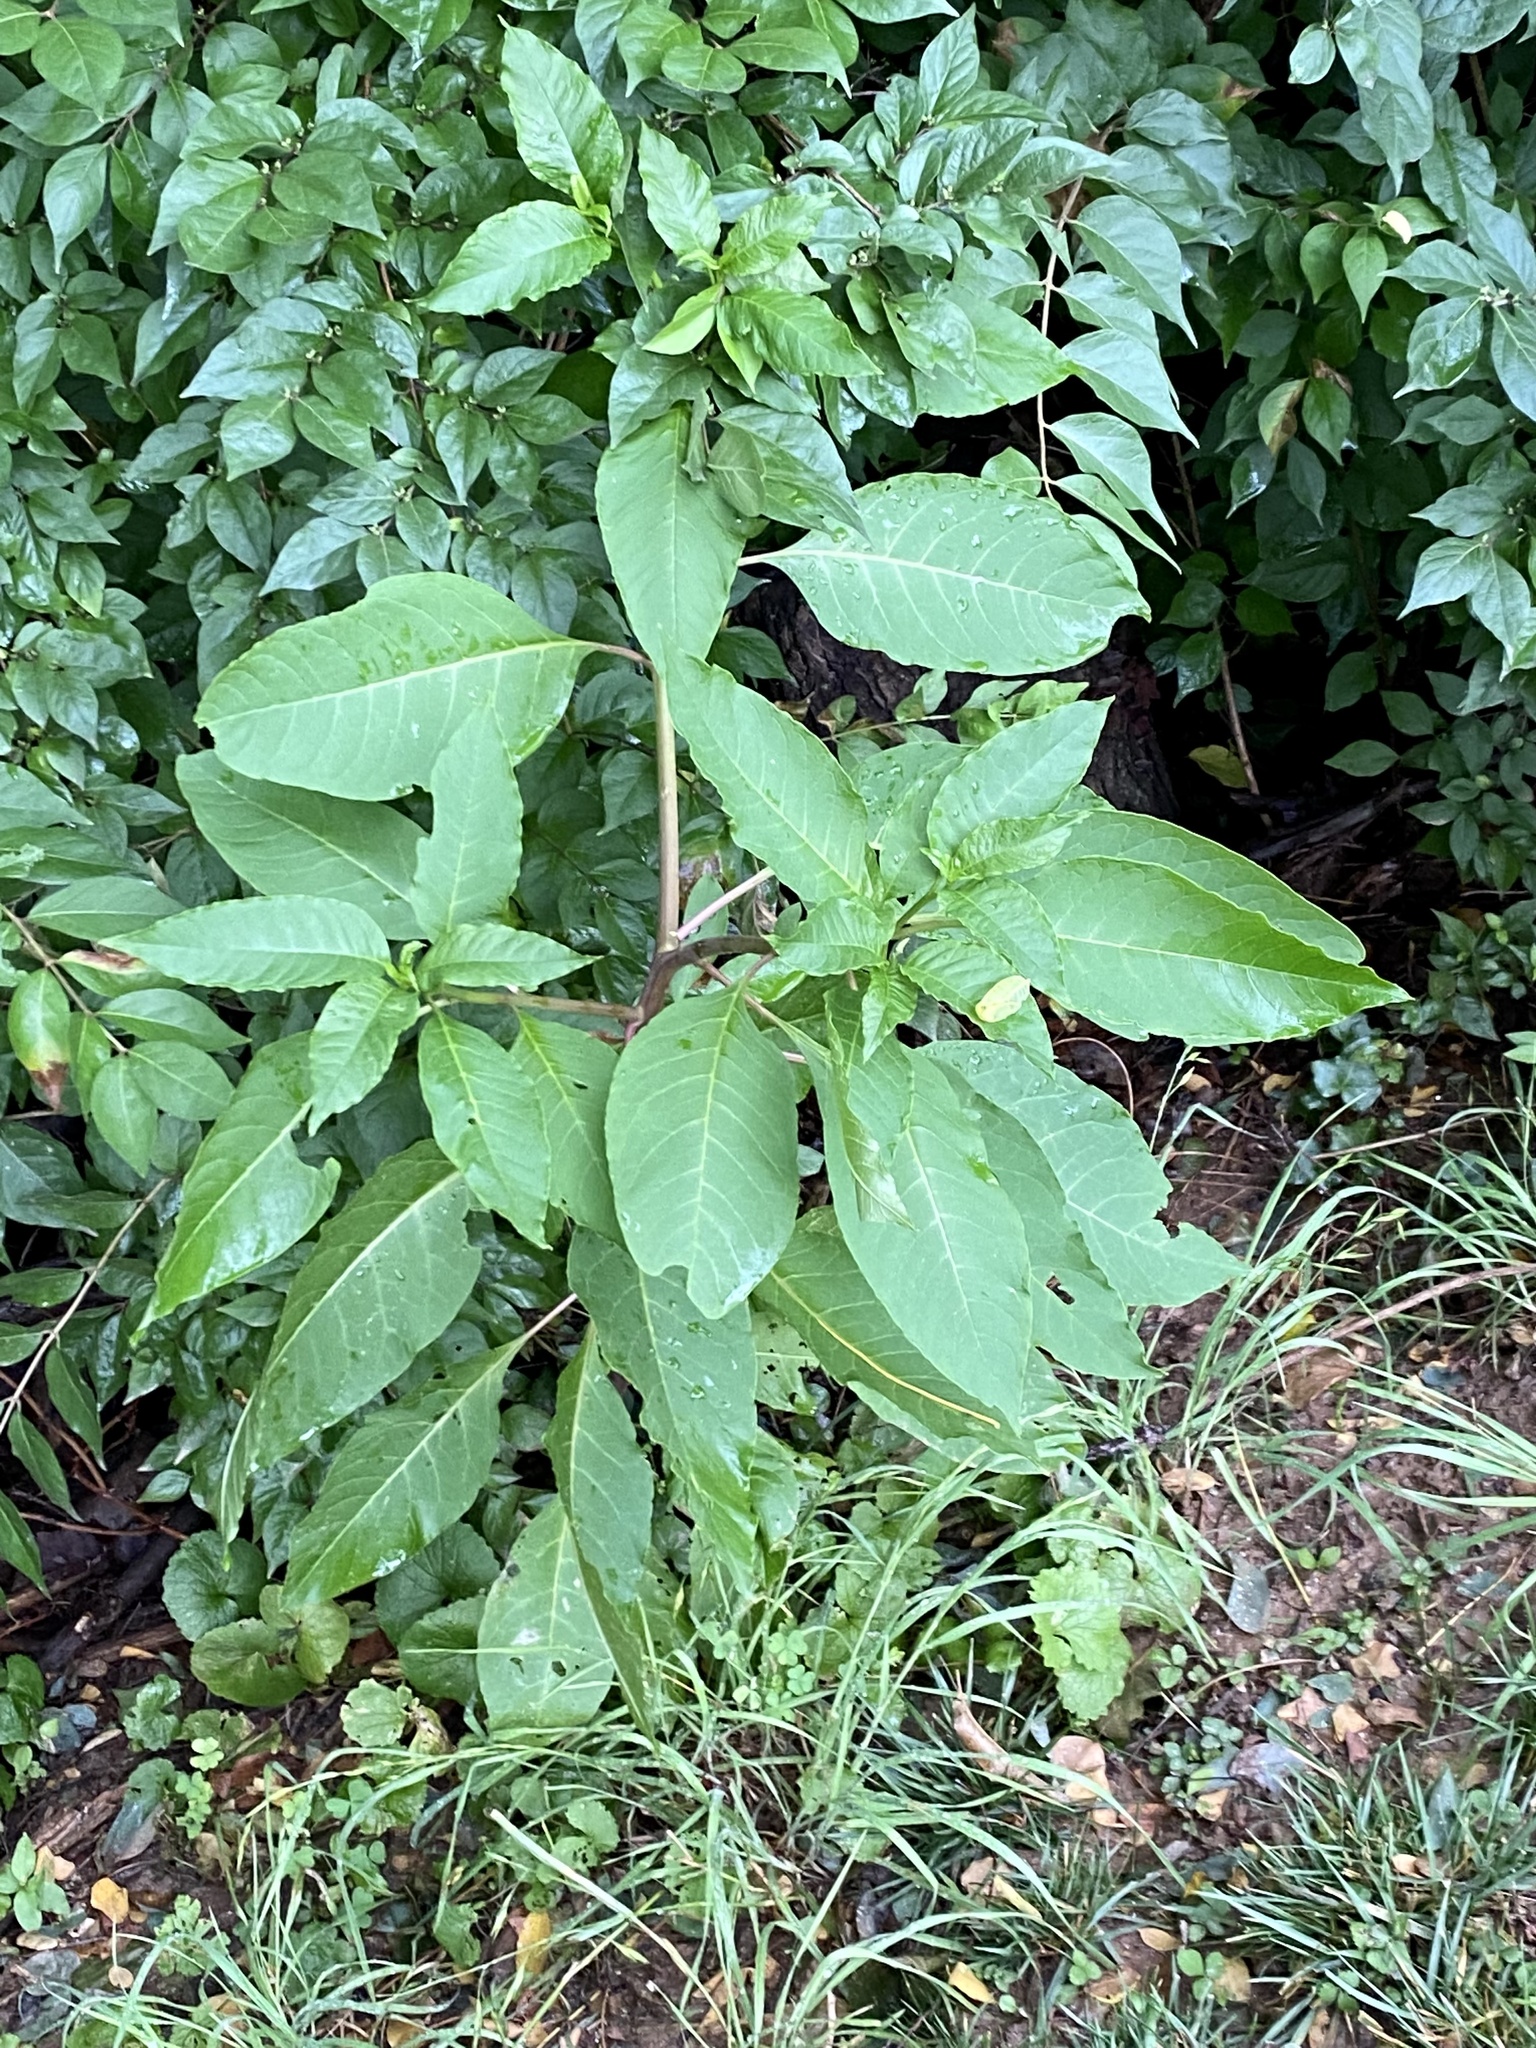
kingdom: Plantae
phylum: Tracheophyta
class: Magnoliopsida
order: Caryophyllales
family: Phytolaccaceae
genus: Phytolacca
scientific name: Phytolacca americana
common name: American pokeweed
